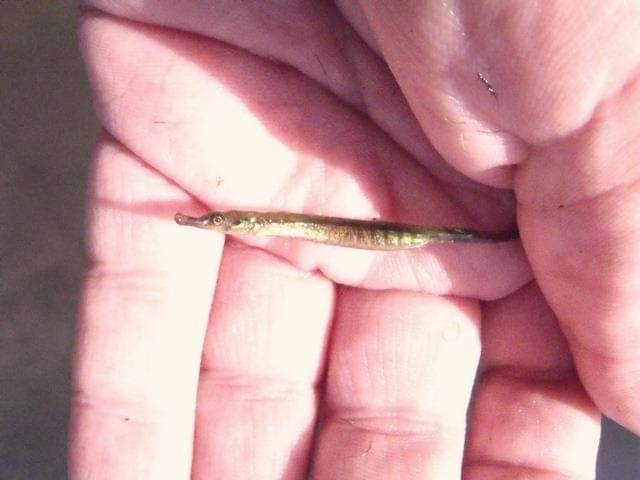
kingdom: Animalia
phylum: Chordata
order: Syngnathiformes
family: Syngnathidae
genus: Syngnathus
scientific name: Syngnathus abaster
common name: Black-striped pipefish
